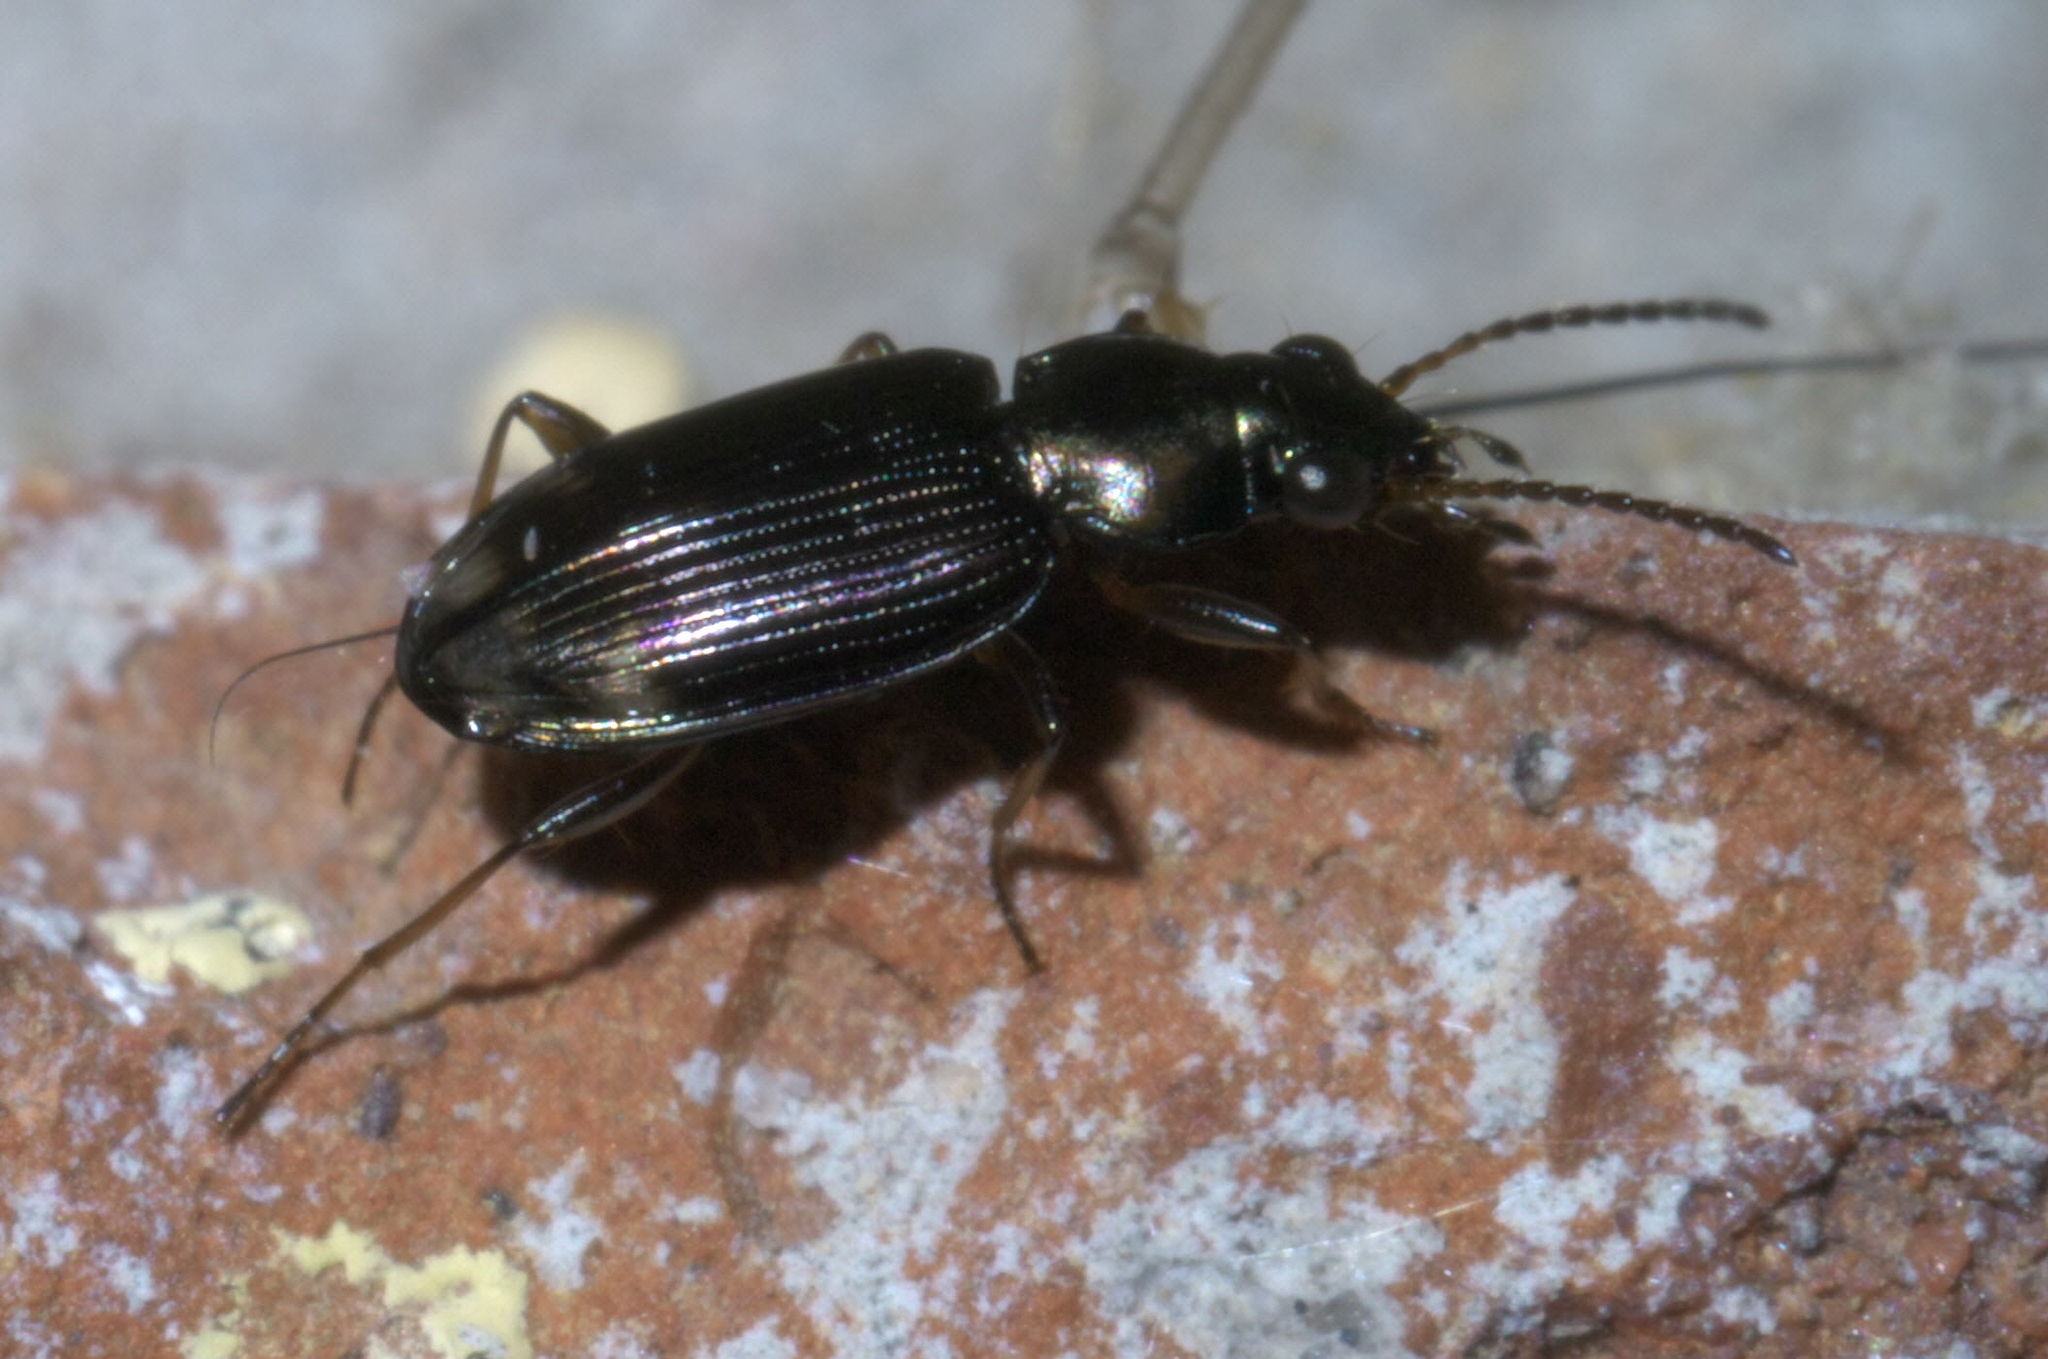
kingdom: Animalia
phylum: Arthropoda
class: Insecta
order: Coleoptera
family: Carabidae
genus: Bembidion
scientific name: Bembidion rapidum
